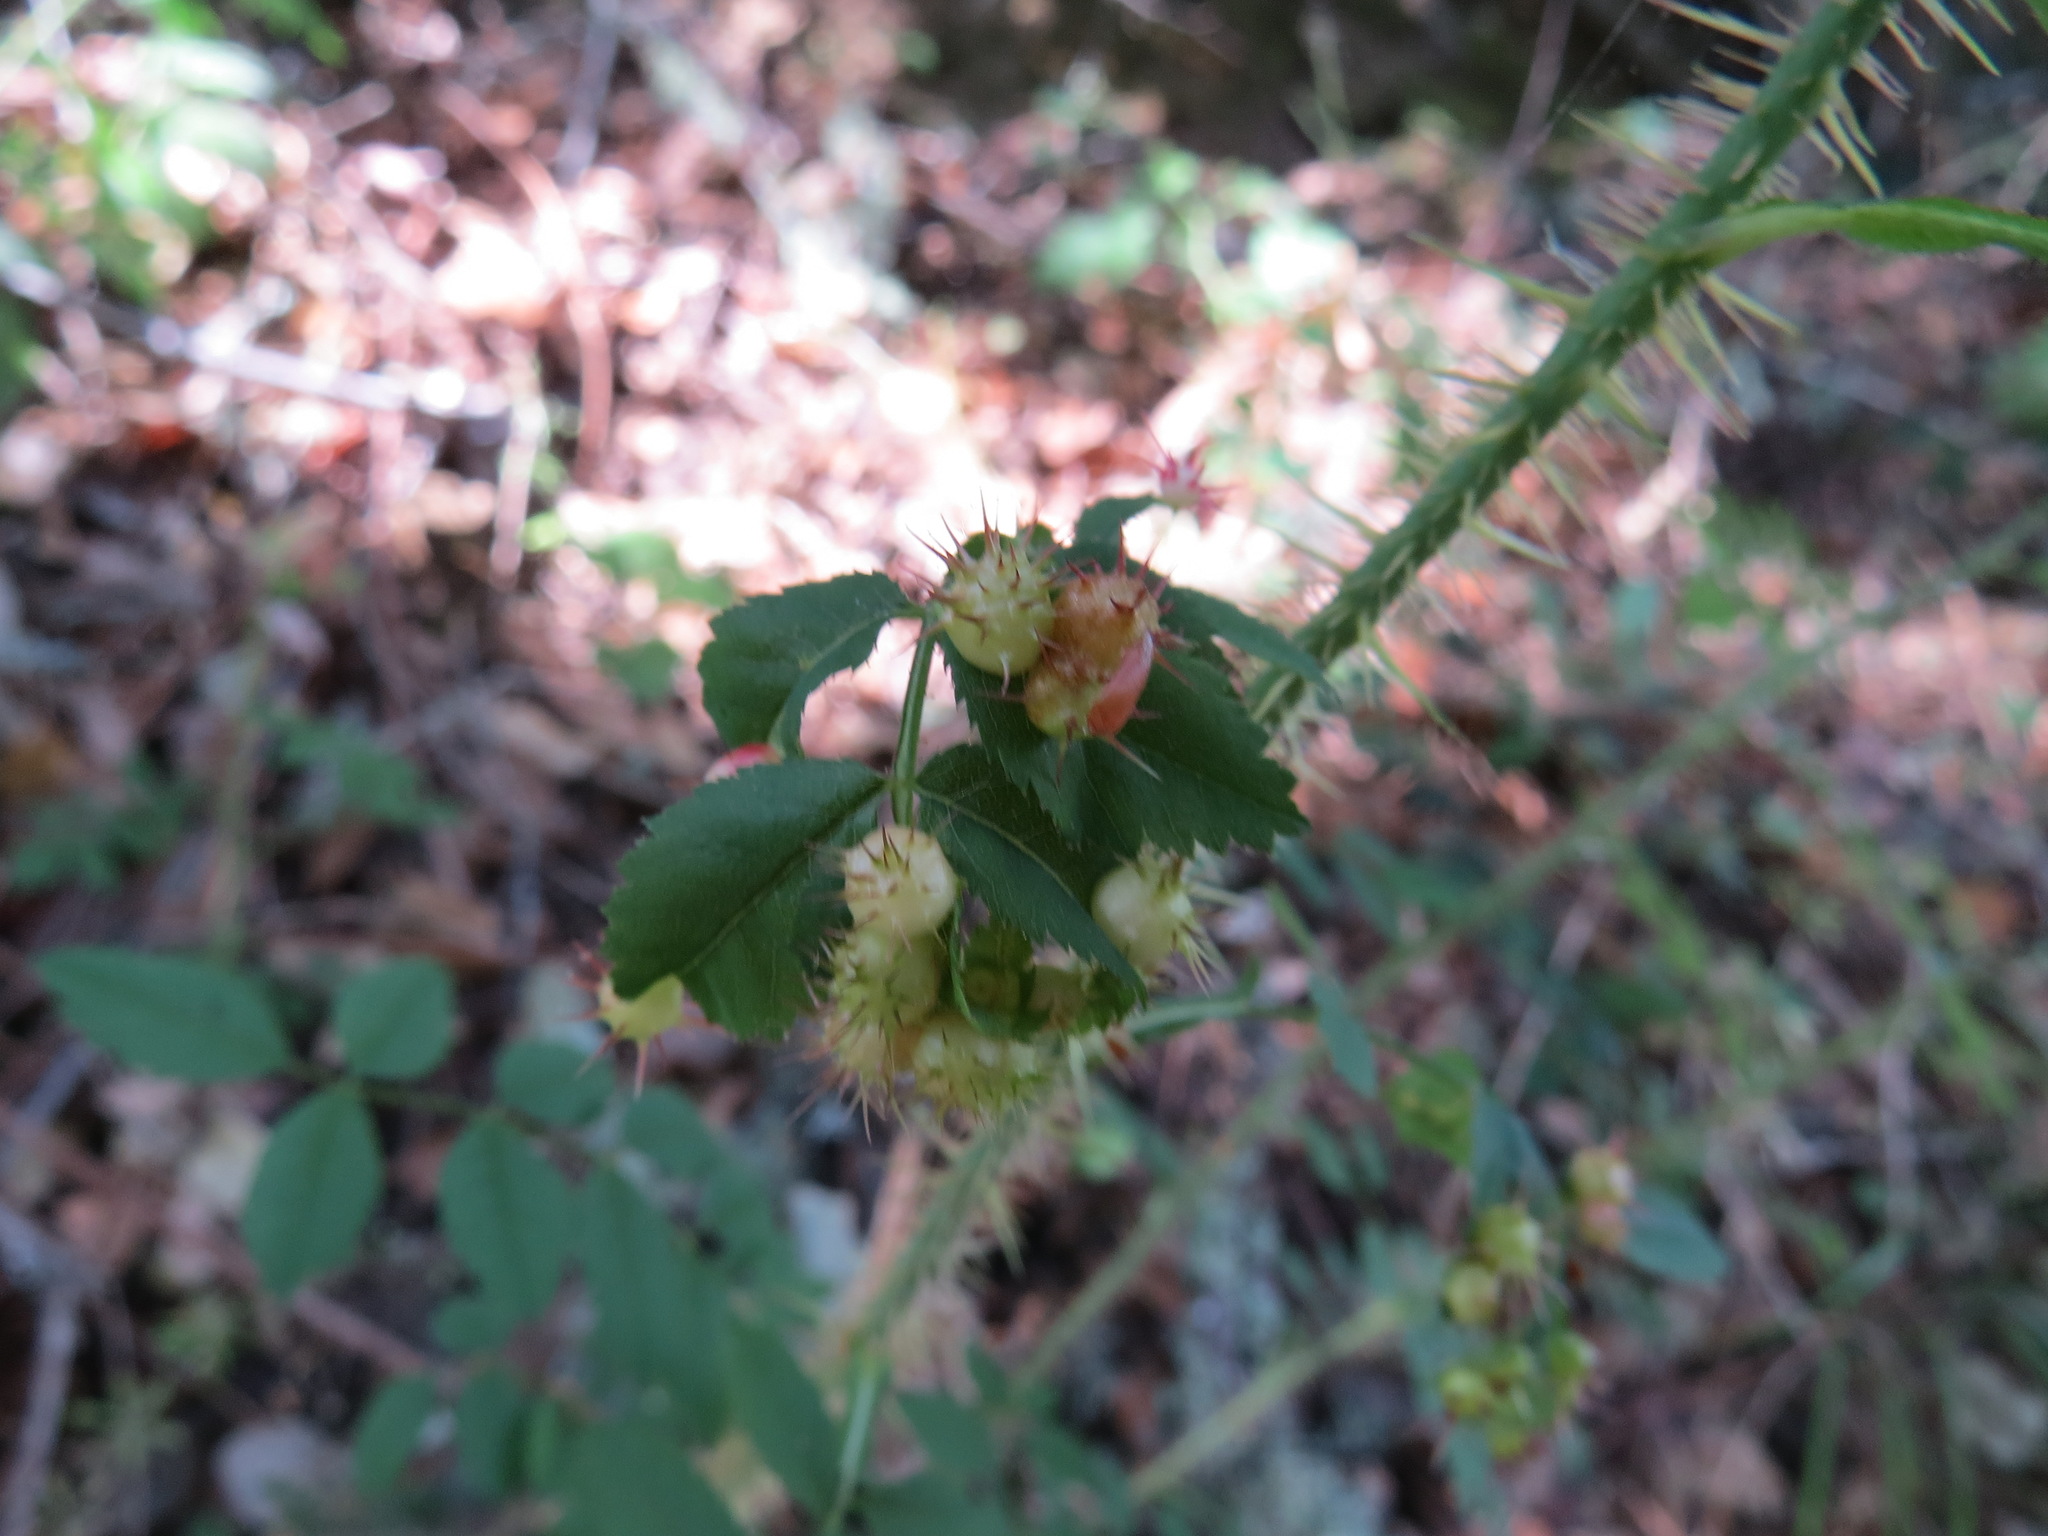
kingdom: Animalia
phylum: Arthropoda
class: Insecta
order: Hymenoptera
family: Cynipidae
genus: Diplolepis
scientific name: Diplolepis polita
